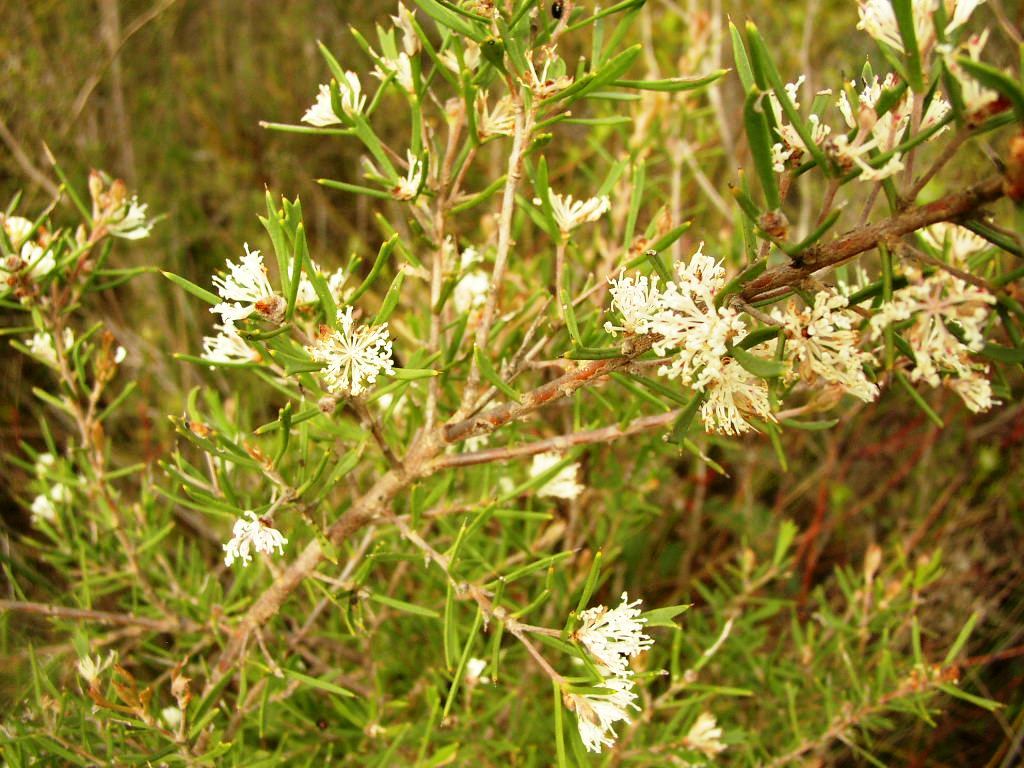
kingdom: Plantae
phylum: Tracheophyta
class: Magnoliopsida
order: Proteales
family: Proteaceae
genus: Hakea
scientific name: Hakea lissocarpha
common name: Honey bush
